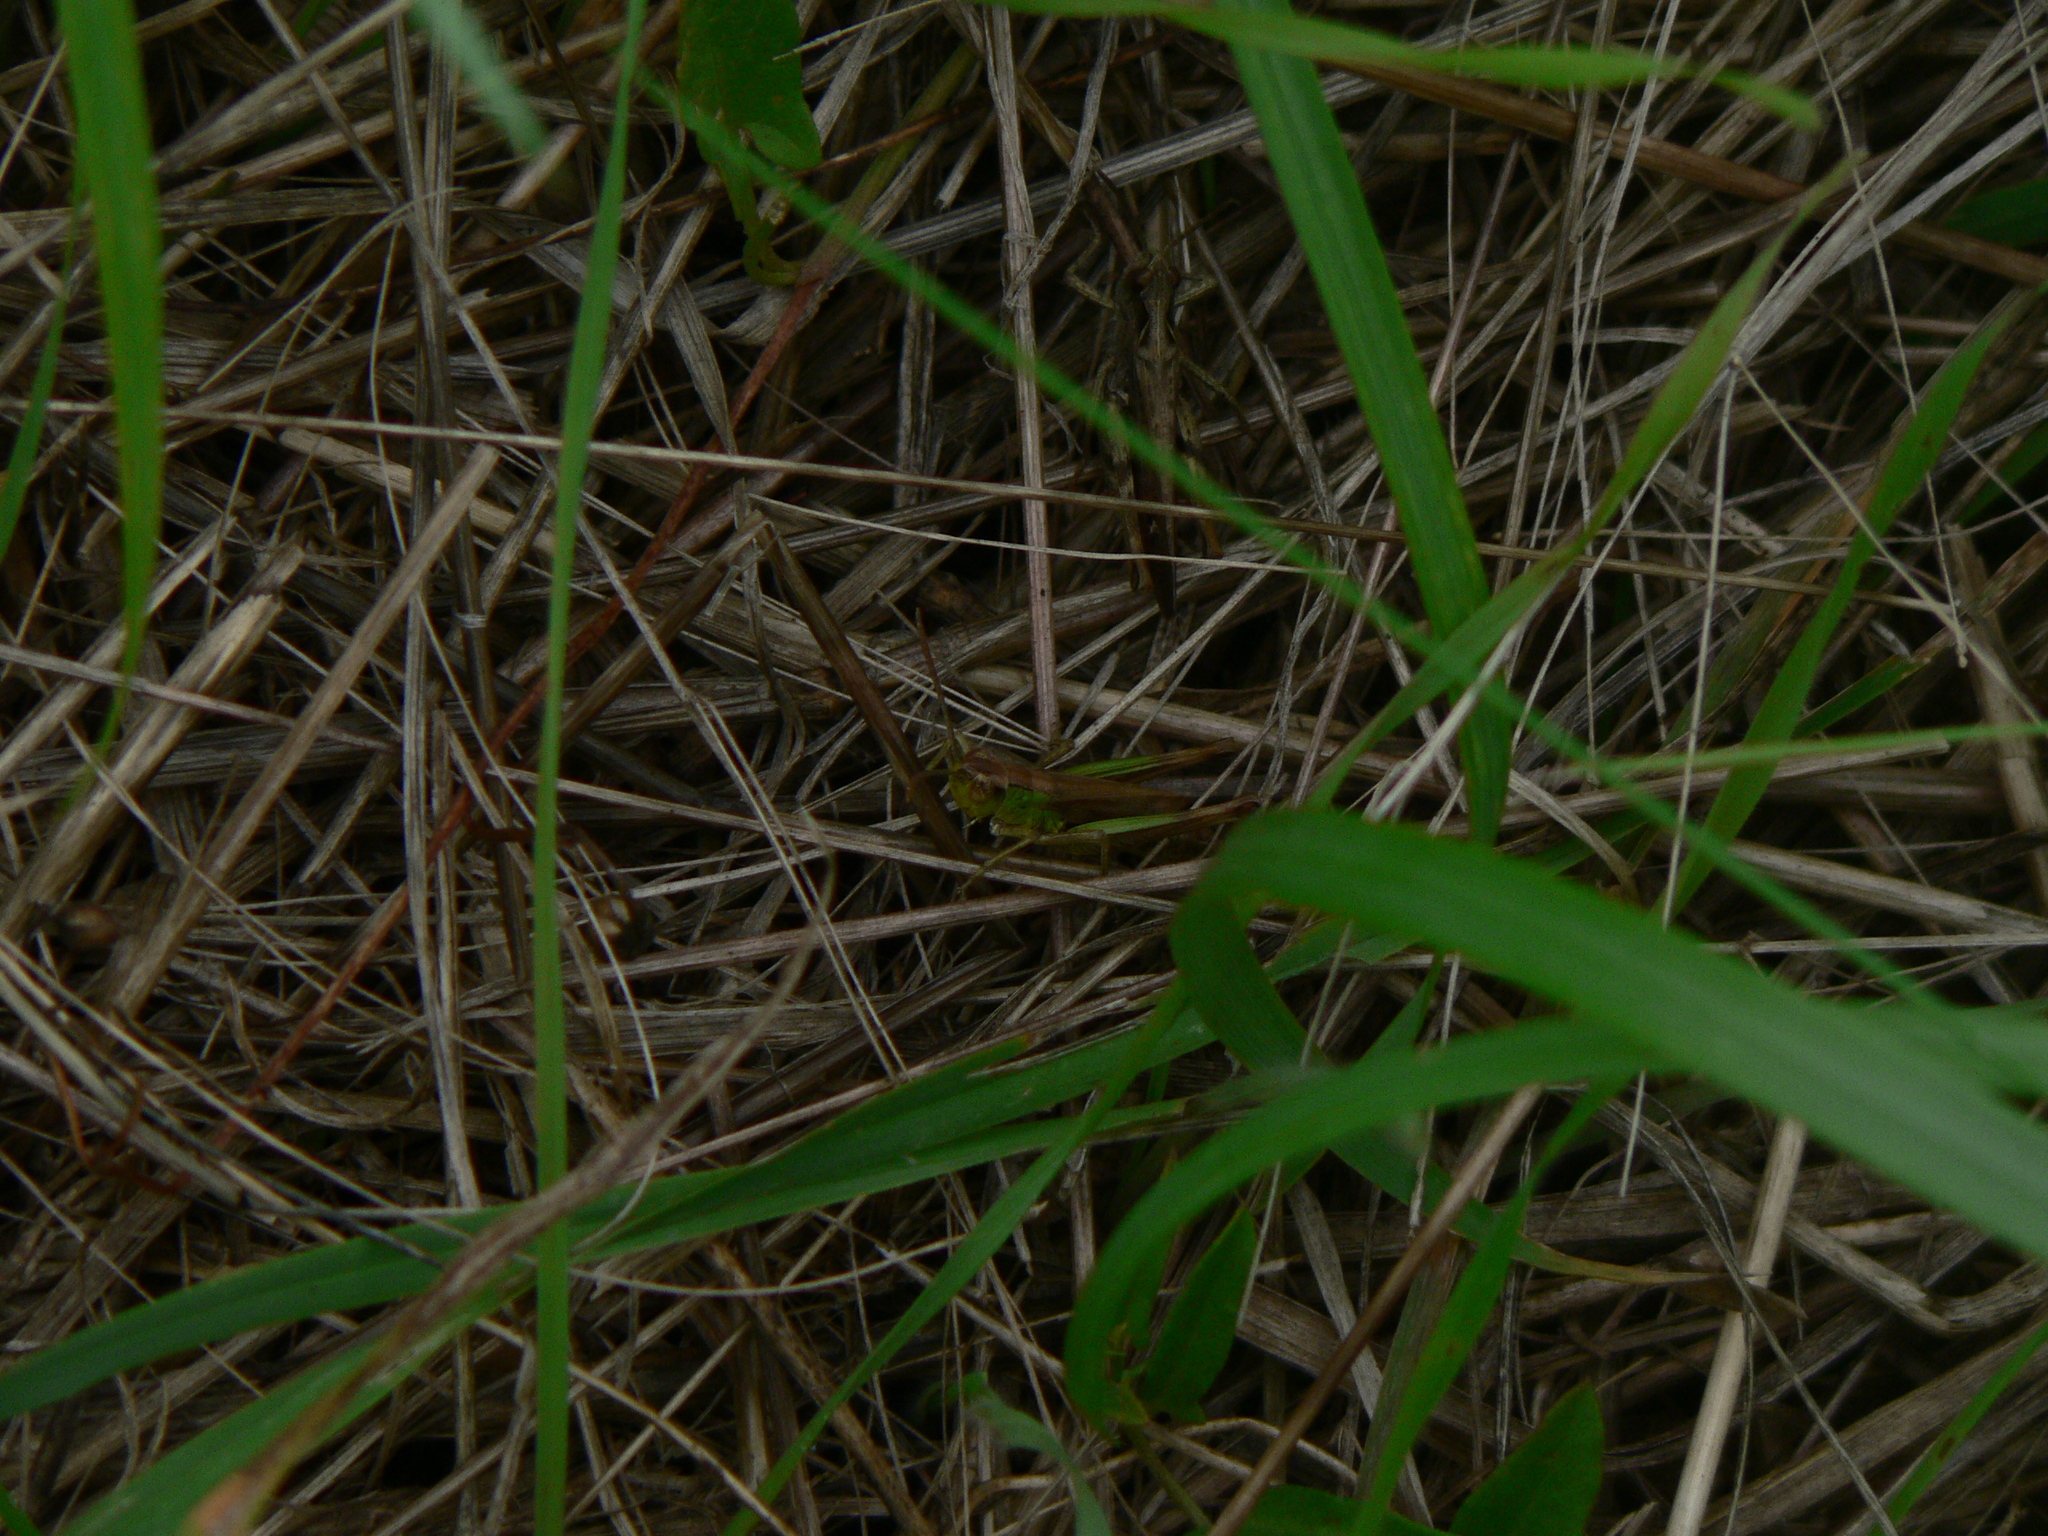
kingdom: Animalia
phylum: Arthropoda
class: Insecta
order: Orthoptera
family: Acrididae
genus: Pseudochorthippus
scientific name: Pseudochorthippus parallelus
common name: Meadow grasshopper
